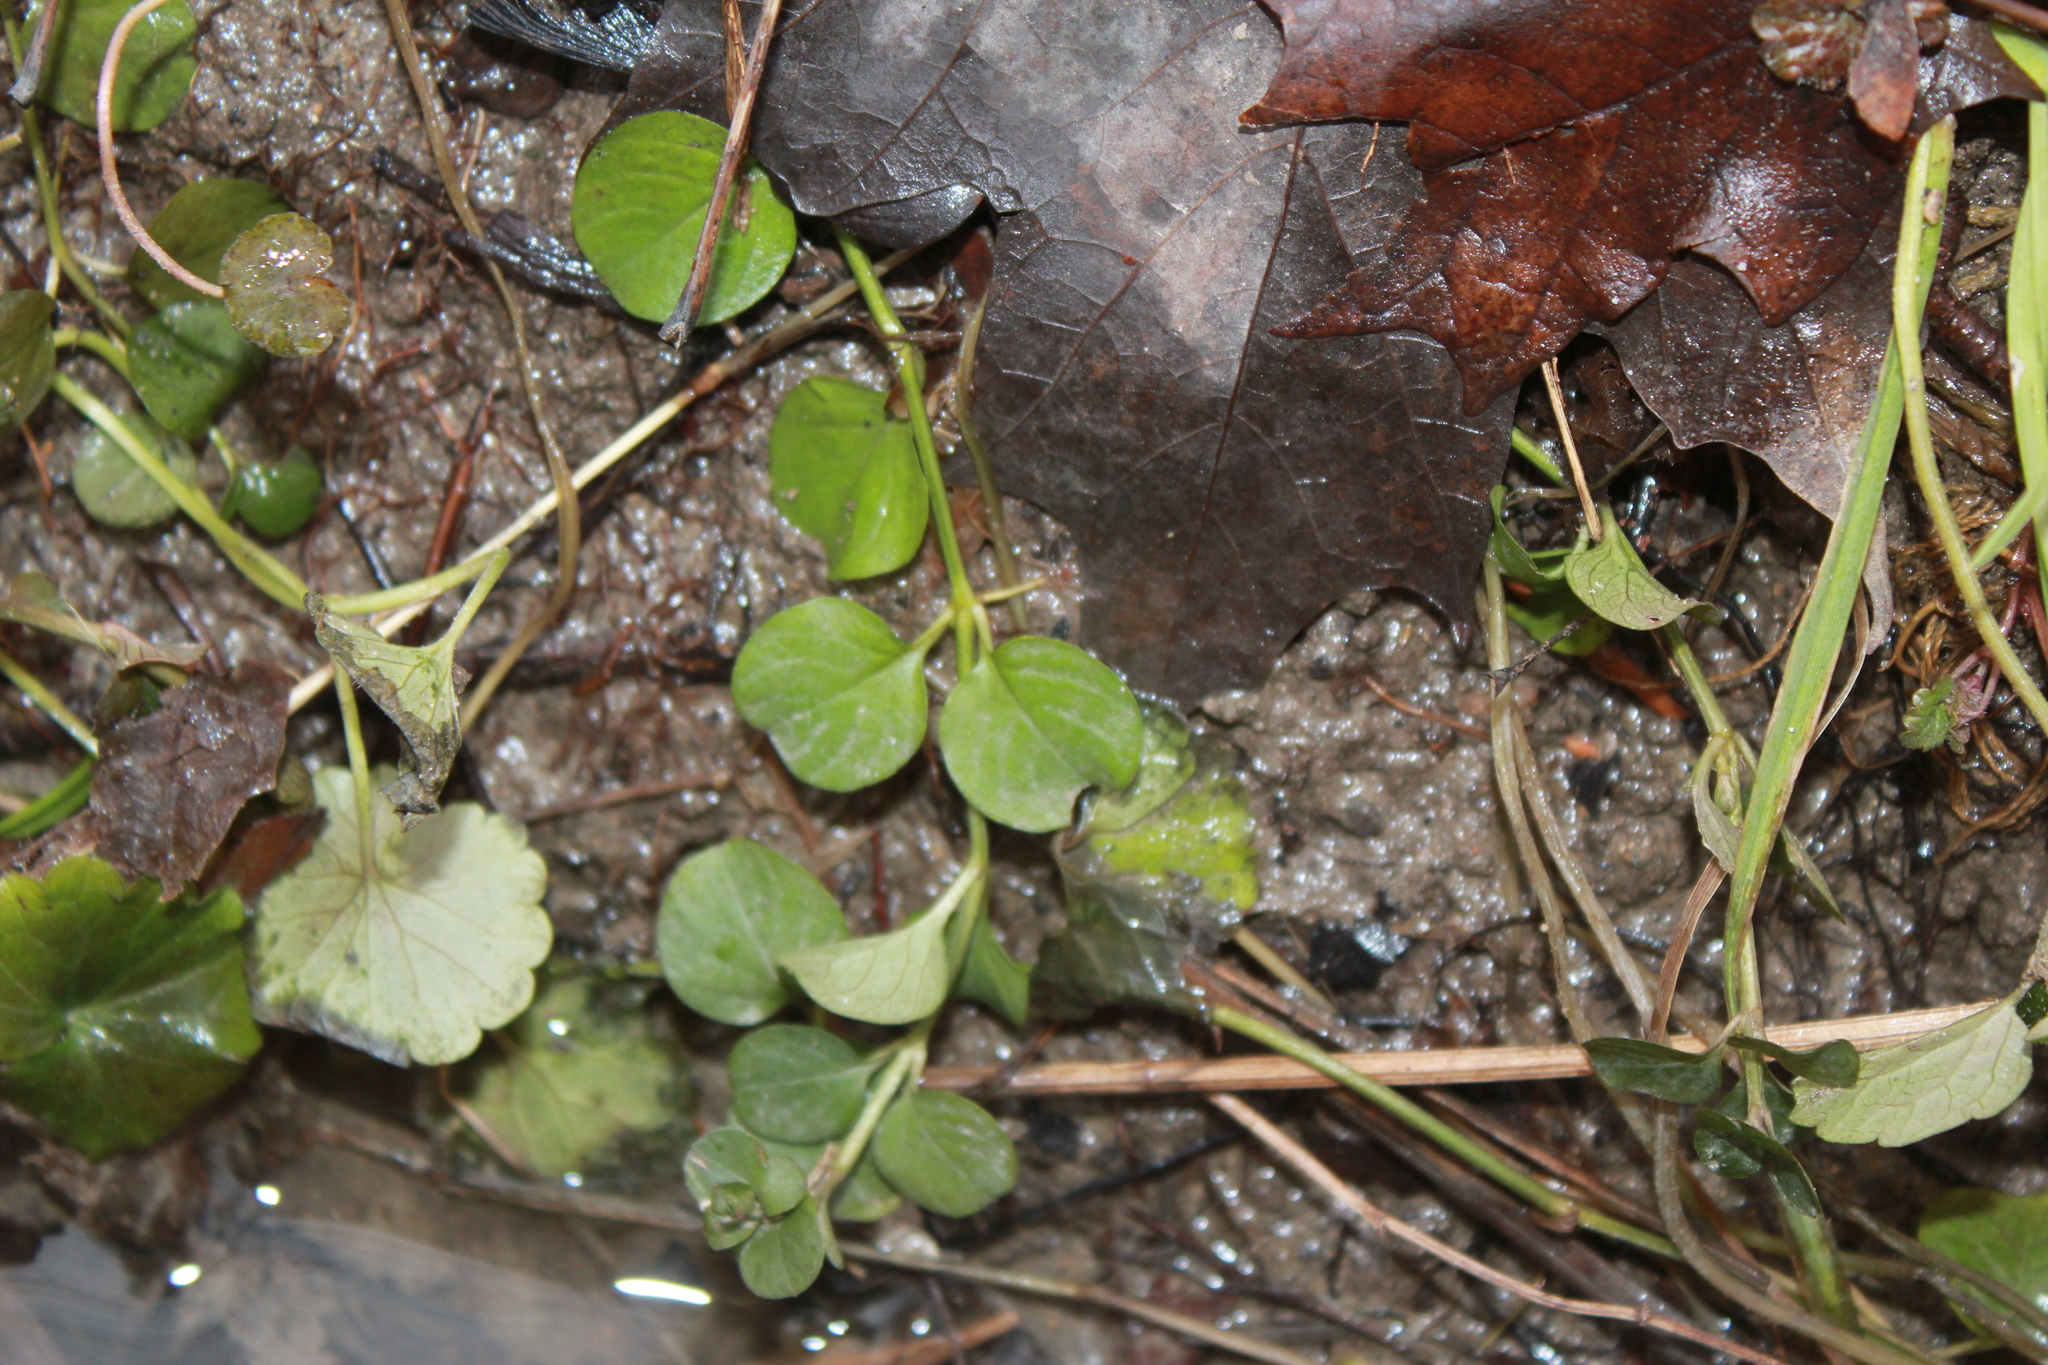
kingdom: Plantae
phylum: Tracheophyta
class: Magnoliopsida
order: Ericales
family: Primulaceae
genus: Lysimachia
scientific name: Lysimachia nummularia
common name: Moneywort
